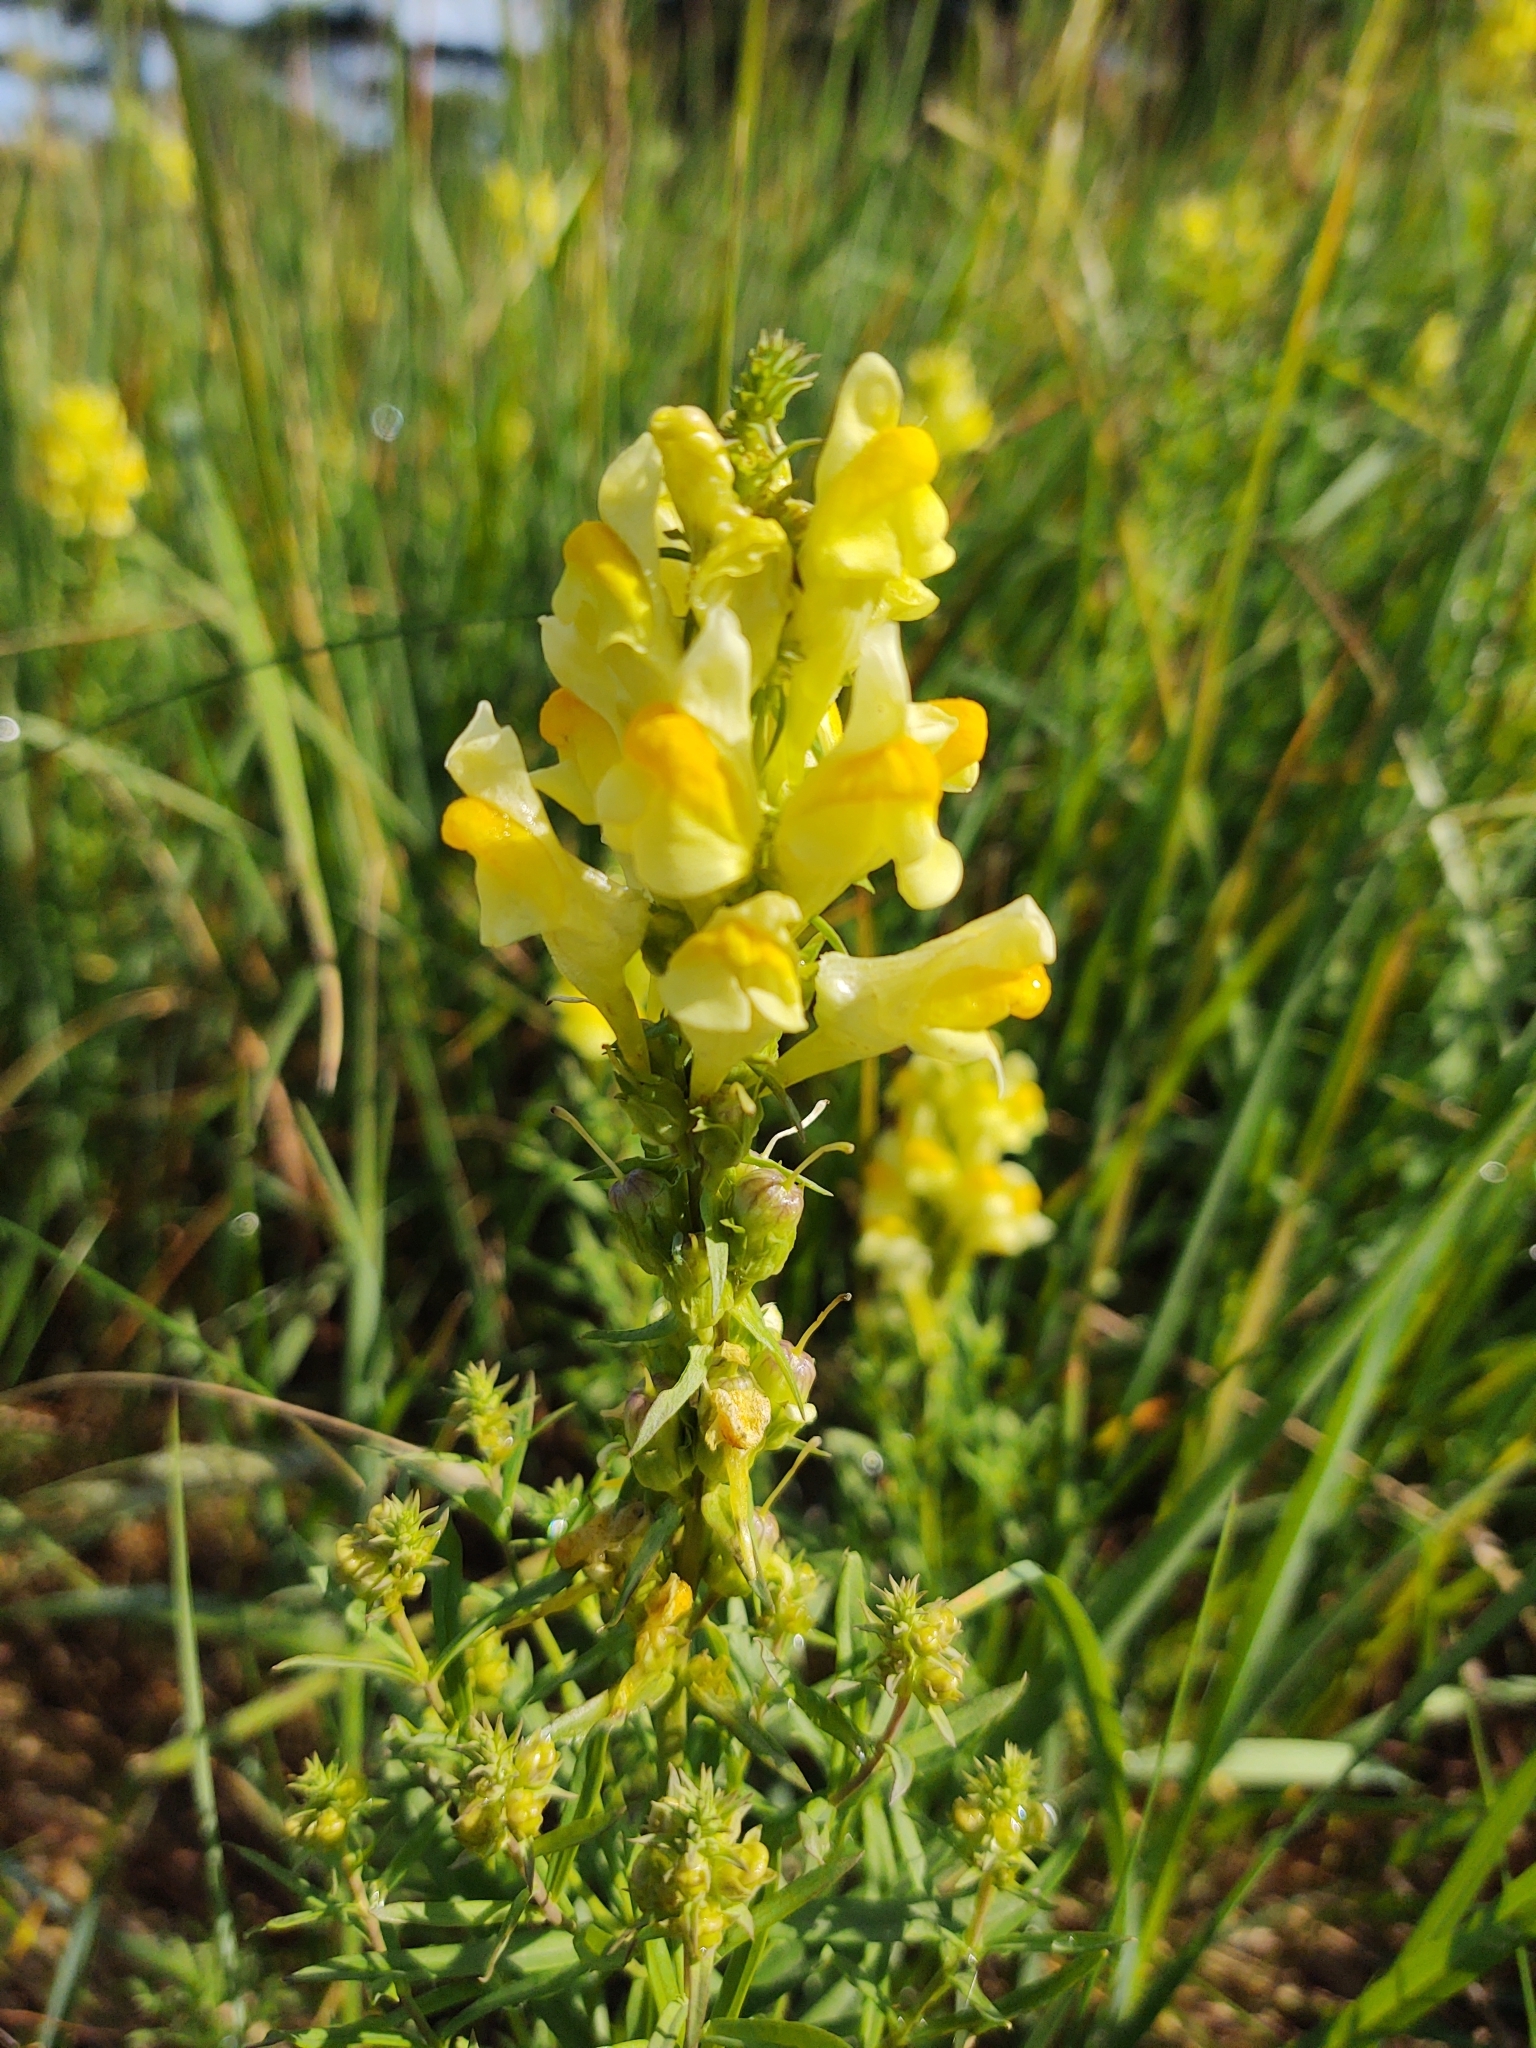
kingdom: Plantae
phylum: Tracheophyta
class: Magnoliopsida
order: Lamiales
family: Plantaginaceae
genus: Linaria
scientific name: Linaria vulgaris
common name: Butter and eggs
